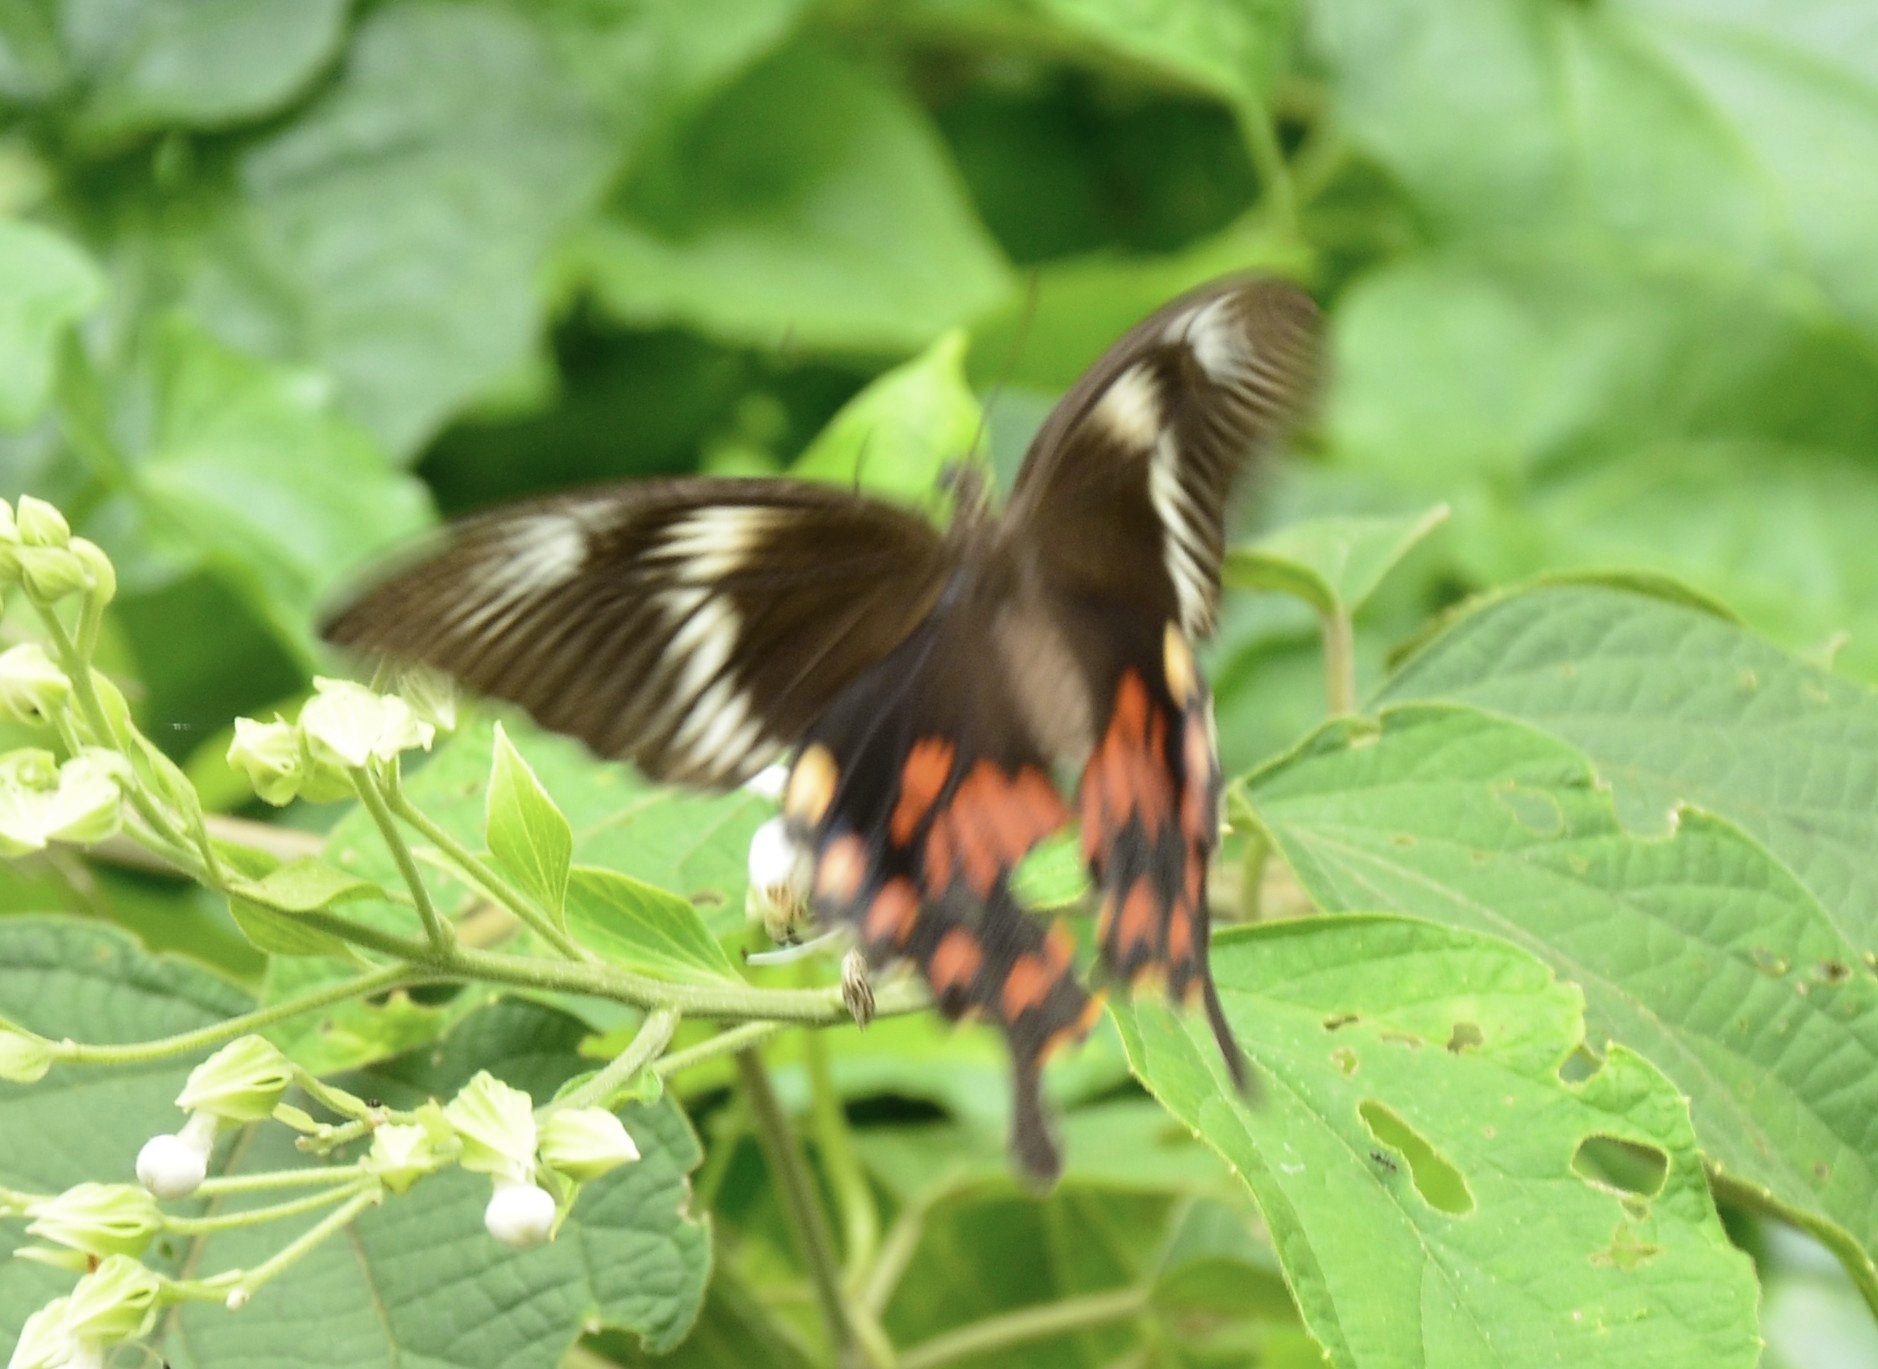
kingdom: Animalia
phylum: Arthropoda
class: Insecta
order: Lepidoptera
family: Papilionidae
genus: Papilio
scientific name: Papilio polytes
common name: Common mormon
